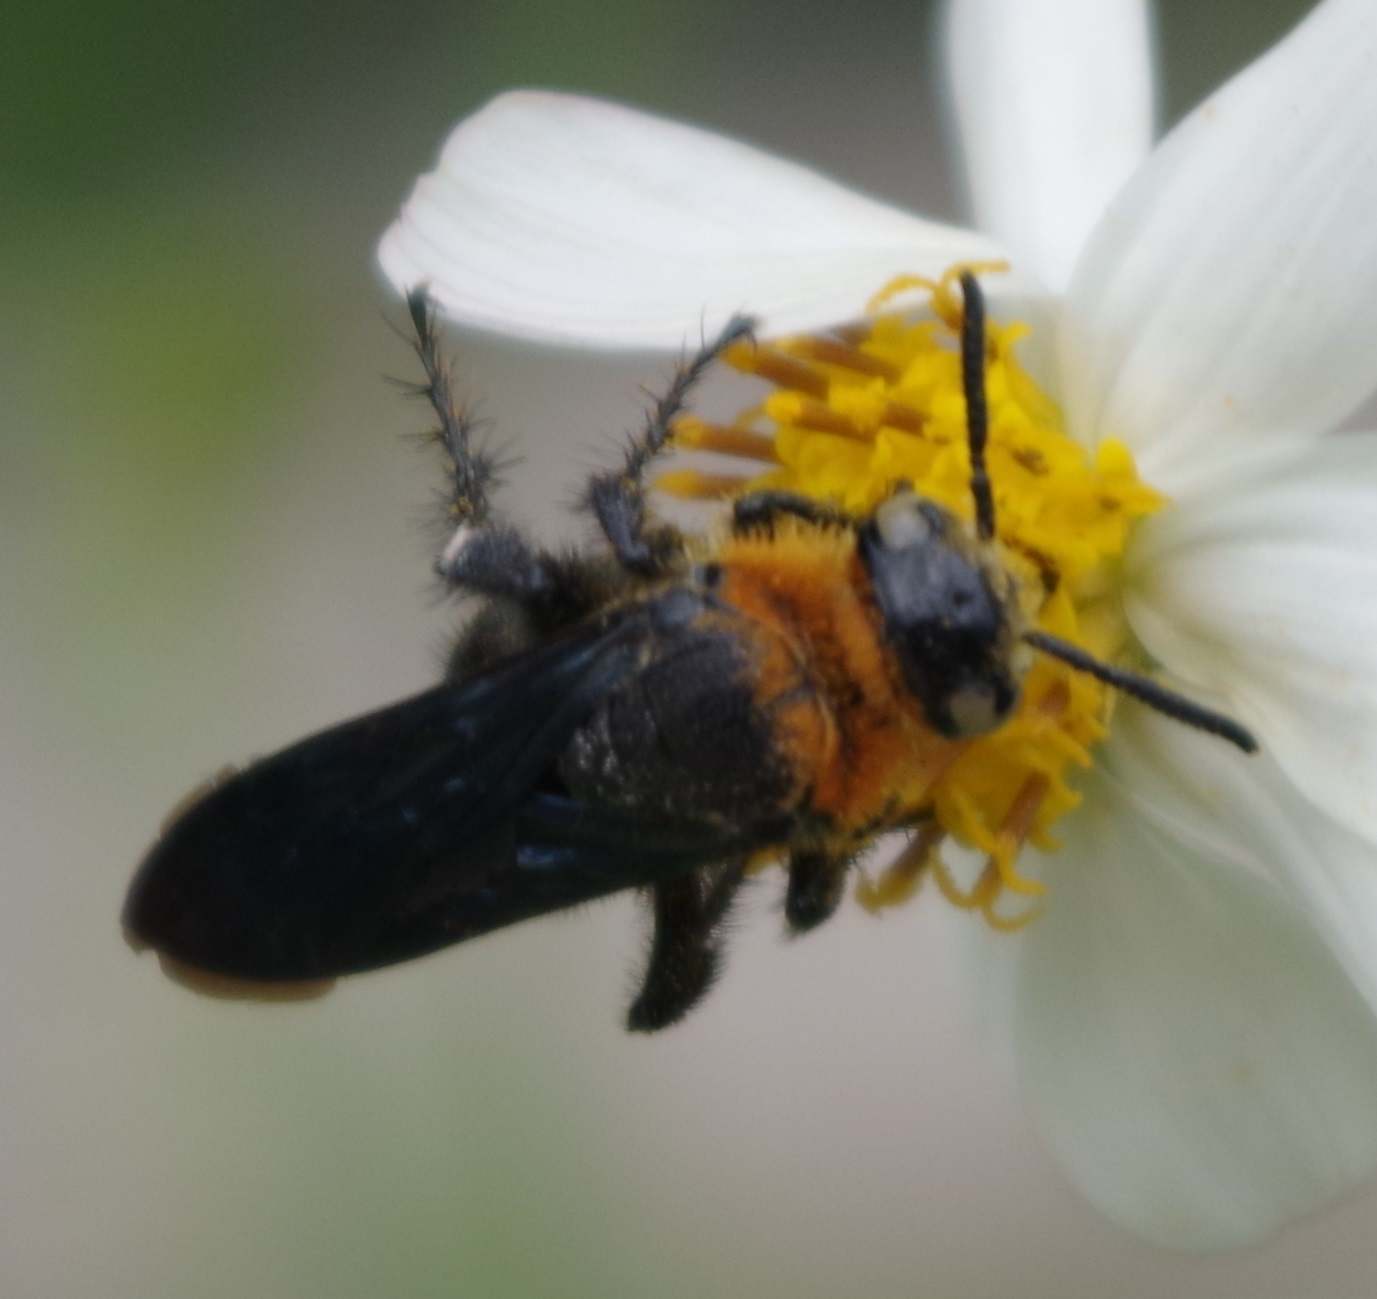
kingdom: Animalia
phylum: Arthropoda
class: Insecta
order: Hymenoptera
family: Scoliidae
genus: Campsomeriella
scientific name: Campsomeriella collaris
